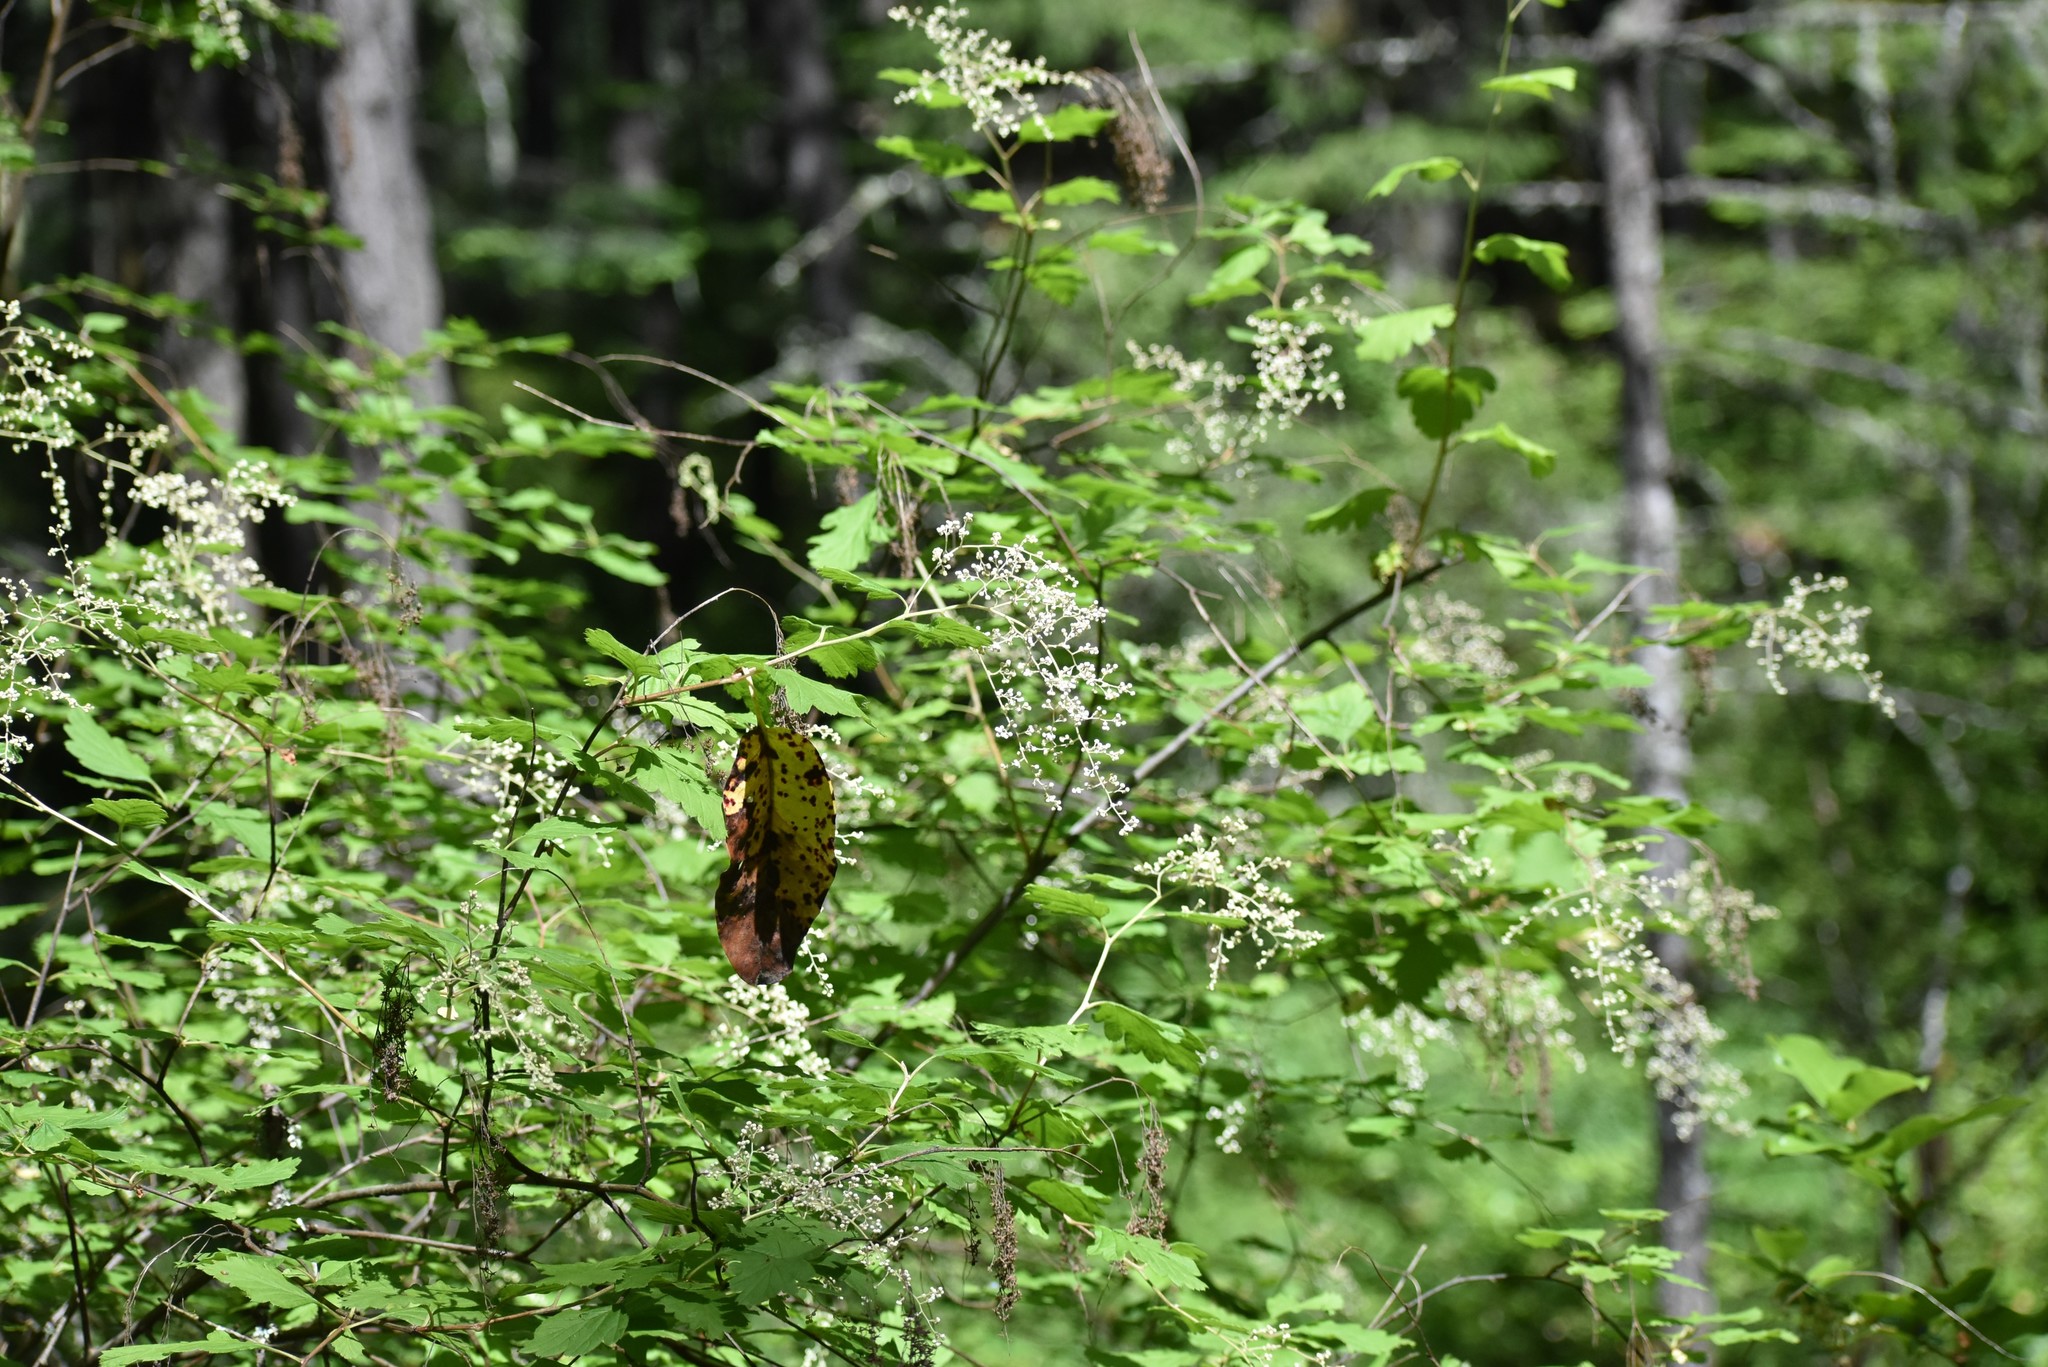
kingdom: Plantae
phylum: Tracheophyta
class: Magnoliopsida
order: Rosales
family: Rosaceae
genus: Holodiscus
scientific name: Holodiscus discolor
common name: Oceanspray
